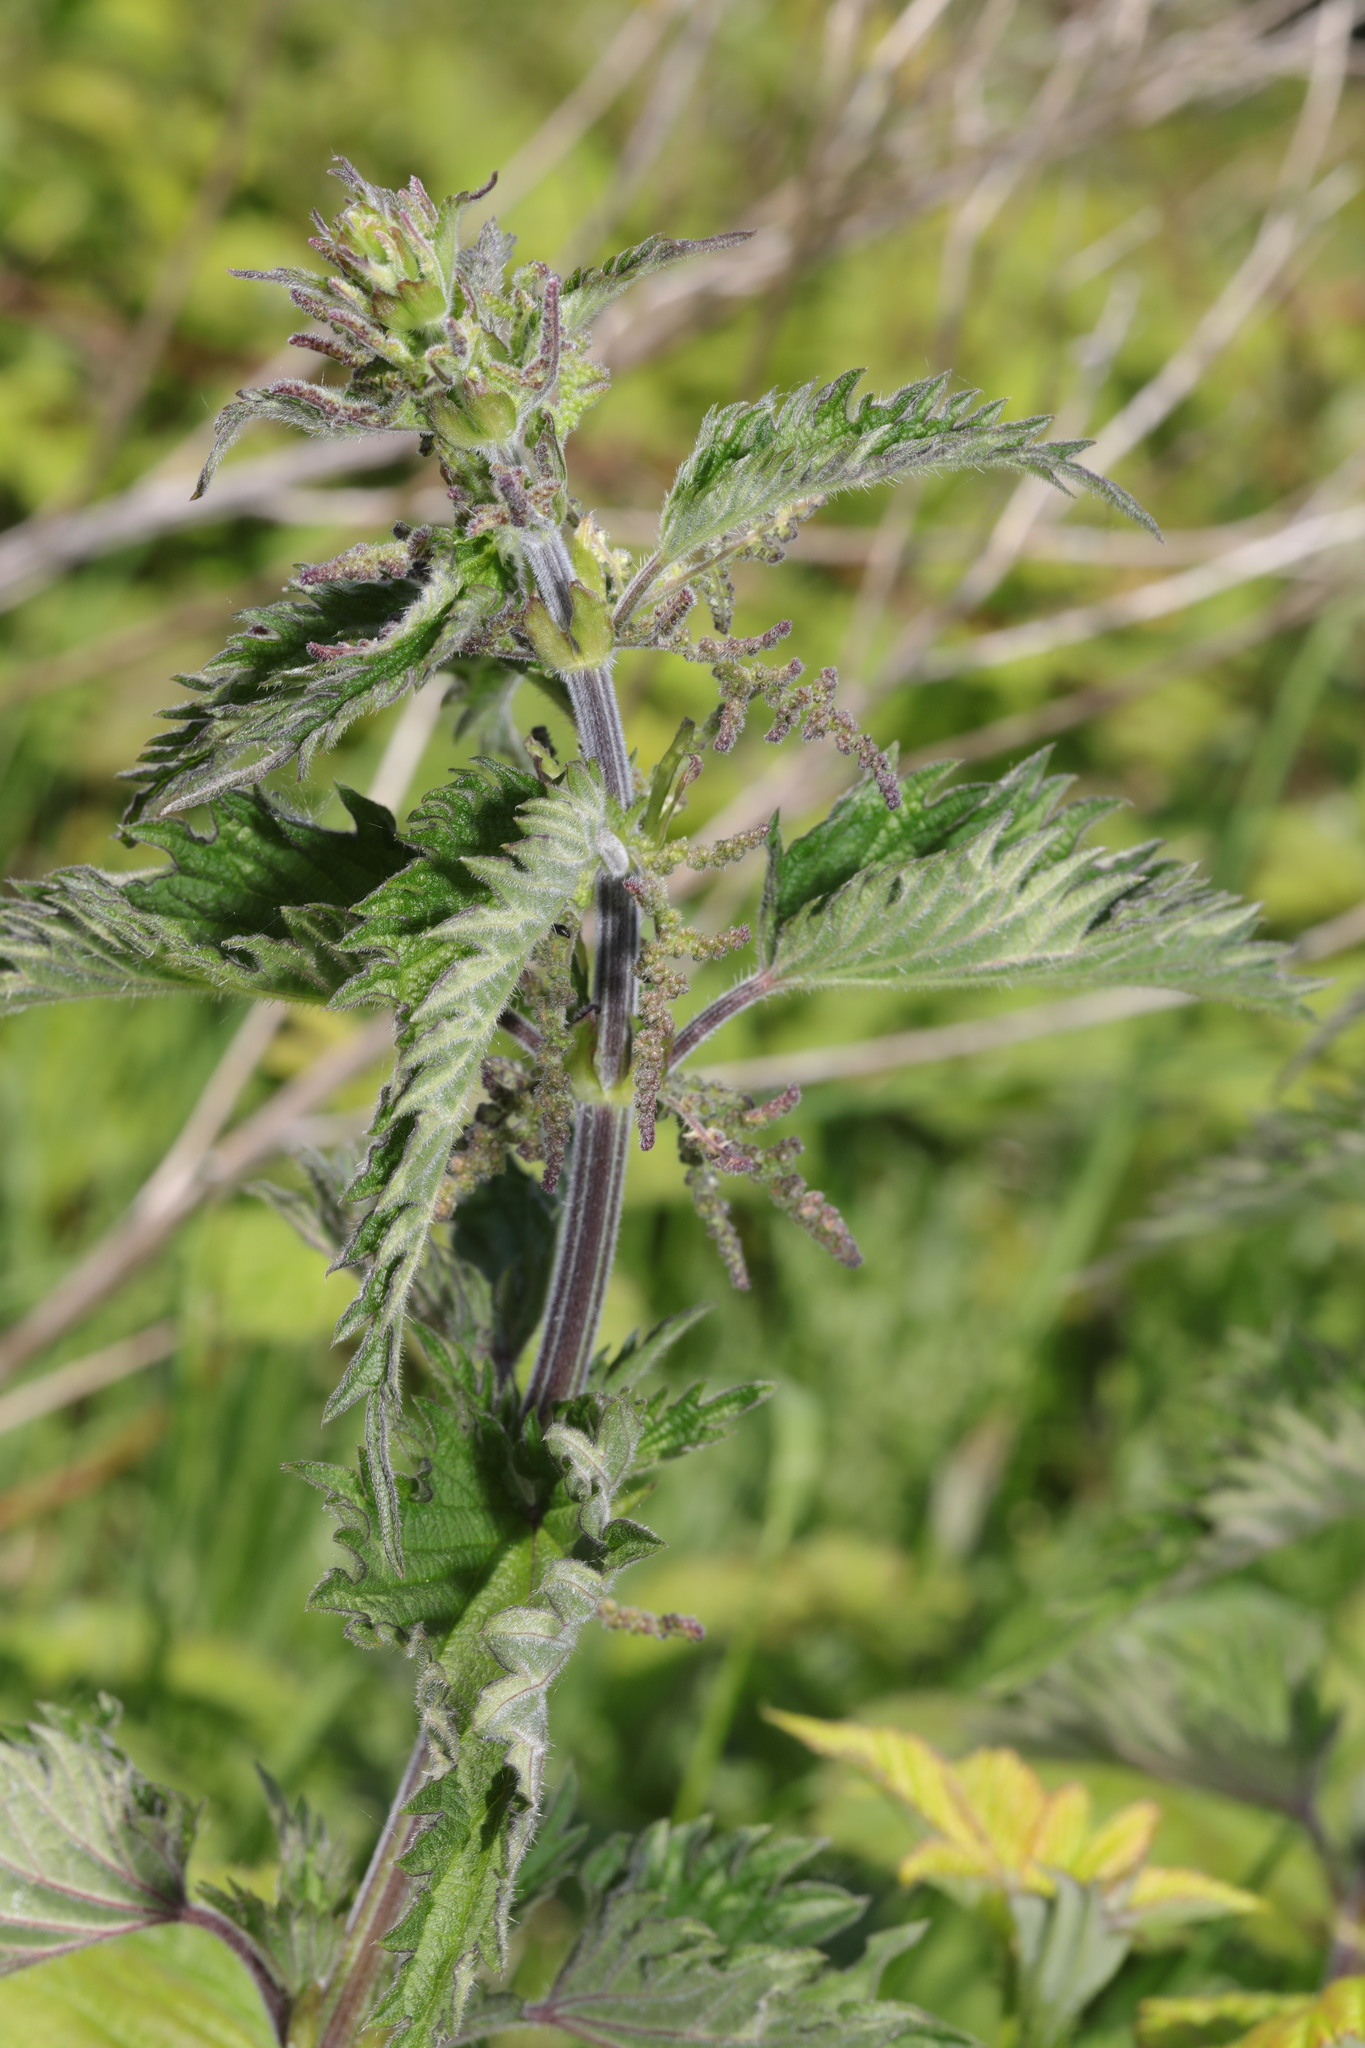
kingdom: Plantae
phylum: Tracheophyta
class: Magnoliopsida
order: Rosales
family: Urticaceae
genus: Urtica
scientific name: Urtica dioica
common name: Common nettle
